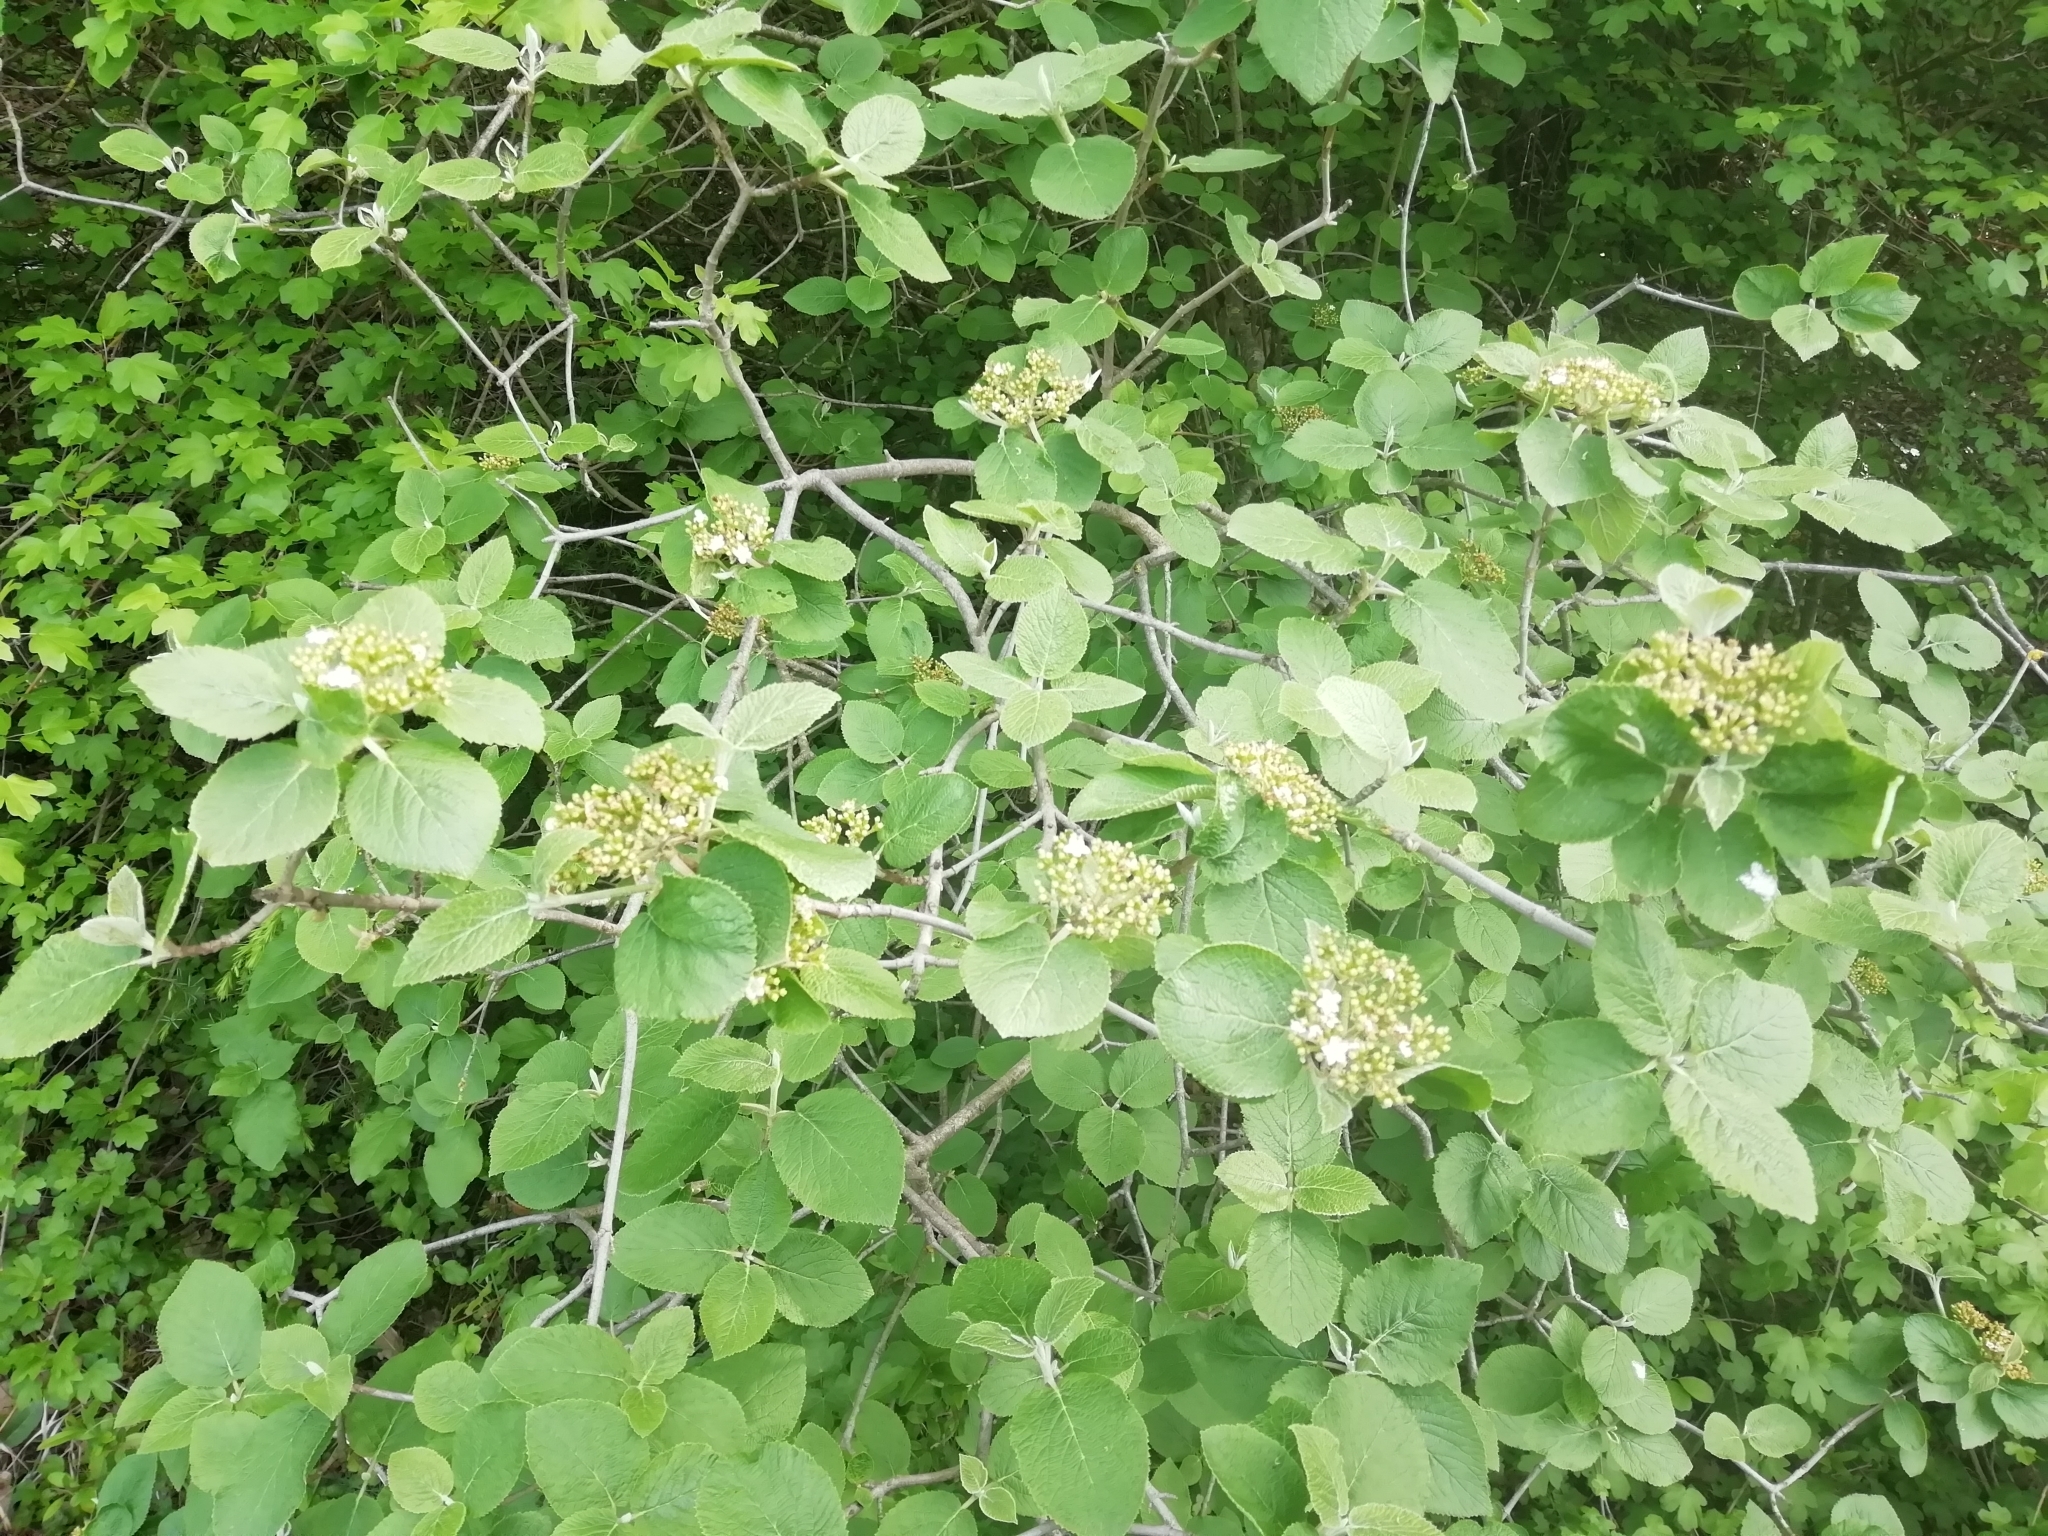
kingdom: Plantae
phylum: Tracheophyta
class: Magnoliopsida
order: Dipsacales
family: Viburnaceae
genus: Viburnum
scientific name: Viburnum lantana
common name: Wayfaring tree
